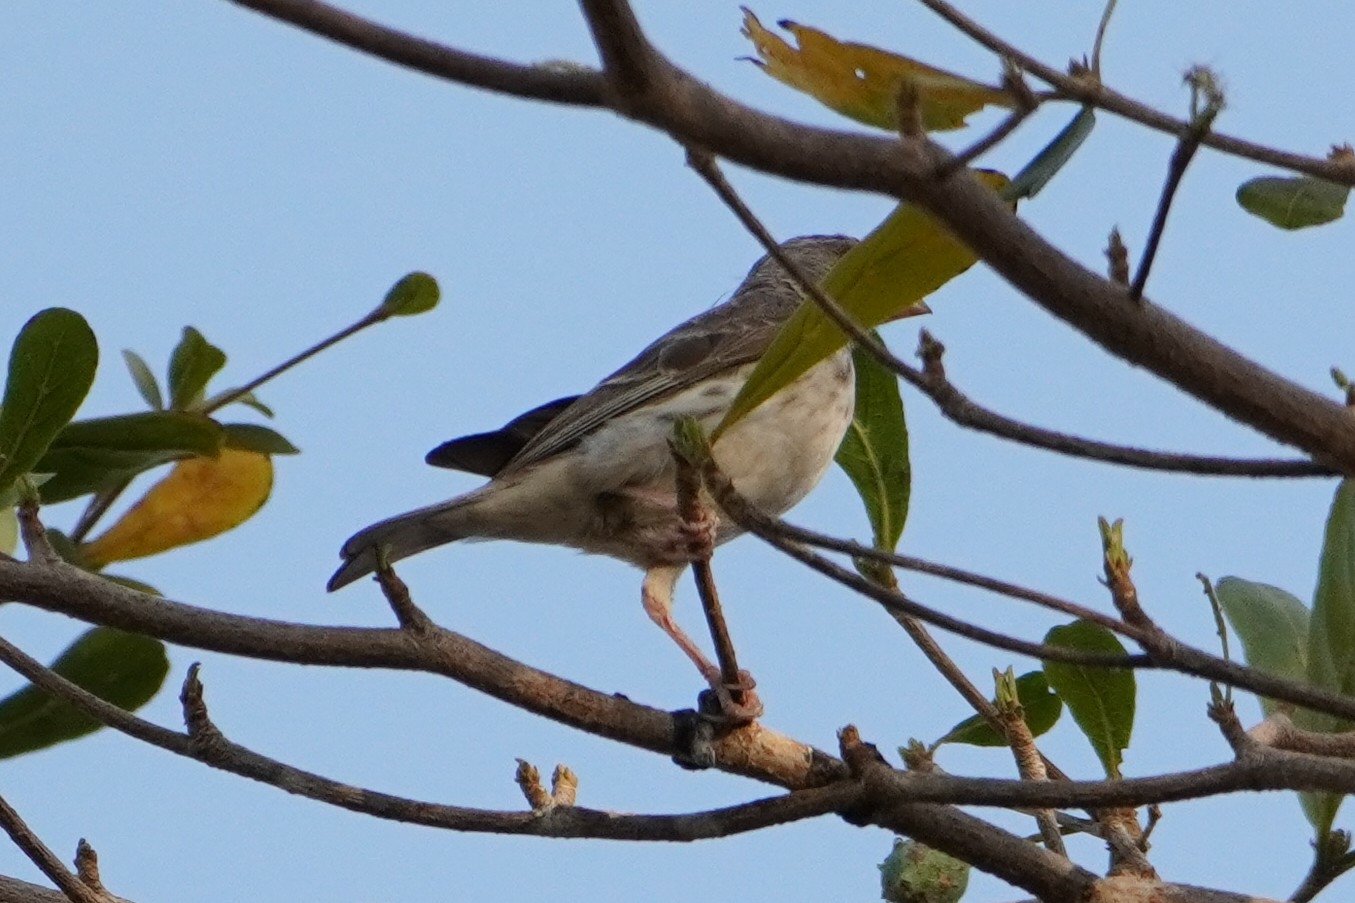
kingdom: Animalia
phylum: Chordata
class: Aves
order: Passeriformes
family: Fringillidae
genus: Crithagra
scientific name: Crithagra leucopygia
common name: White-rumped seedeater
